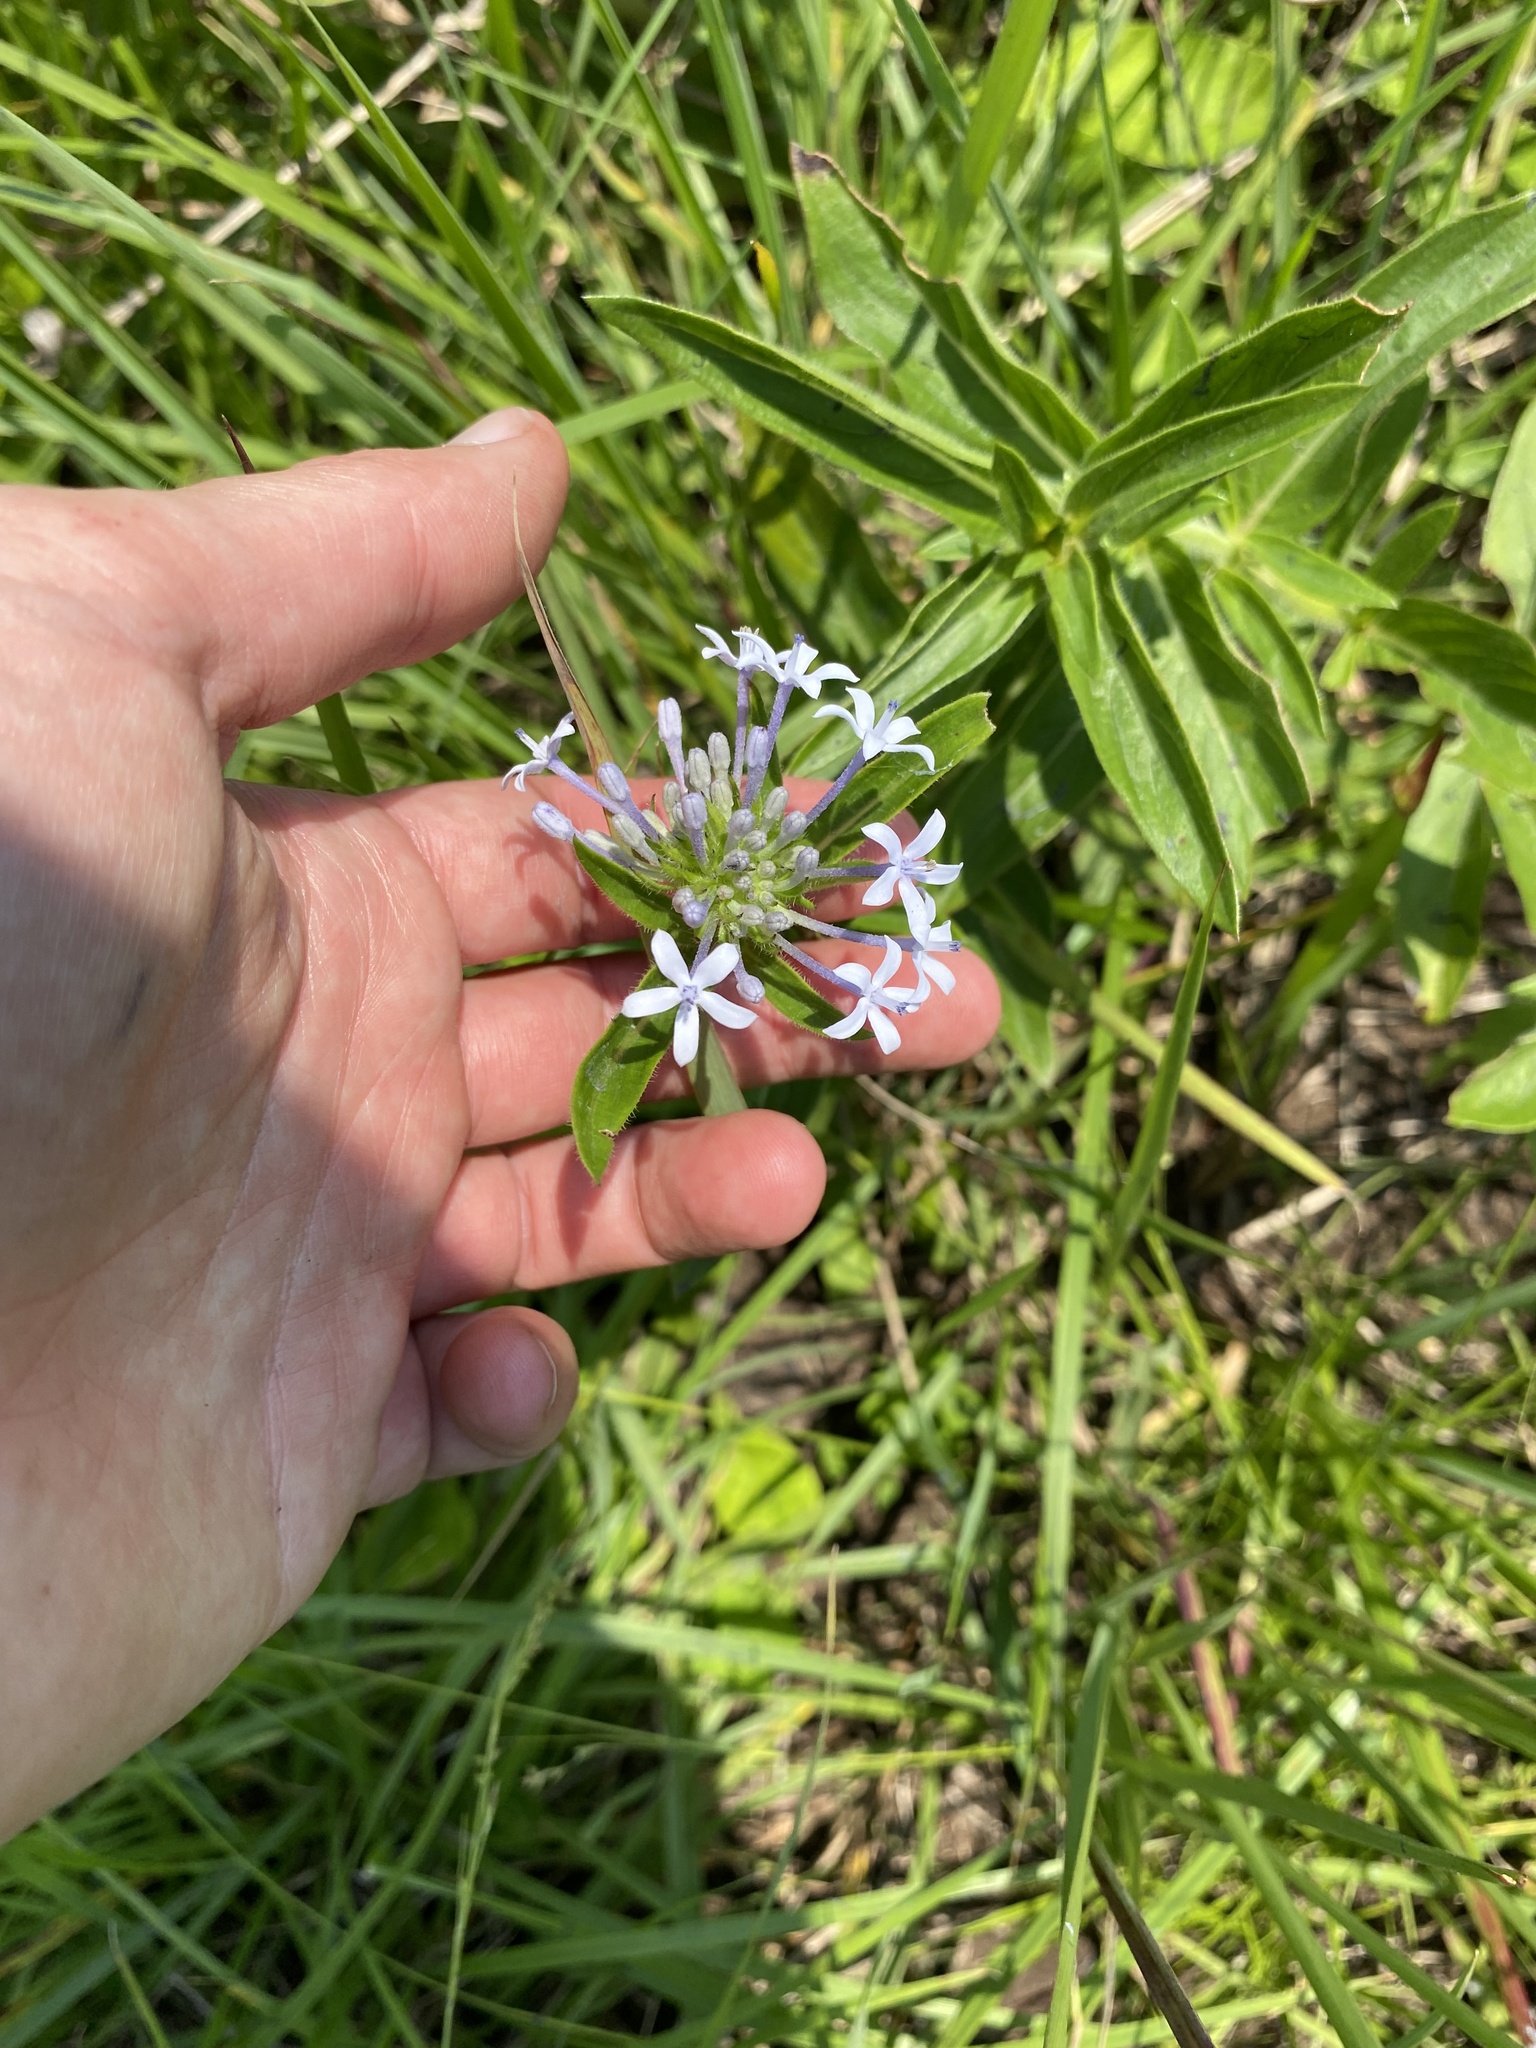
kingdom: Plantae
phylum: Tracheophyta
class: Magnoliopsida
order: Gentianales
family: Rubiaceae
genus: Pentanisia
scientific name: Pentanisia angustifolia
